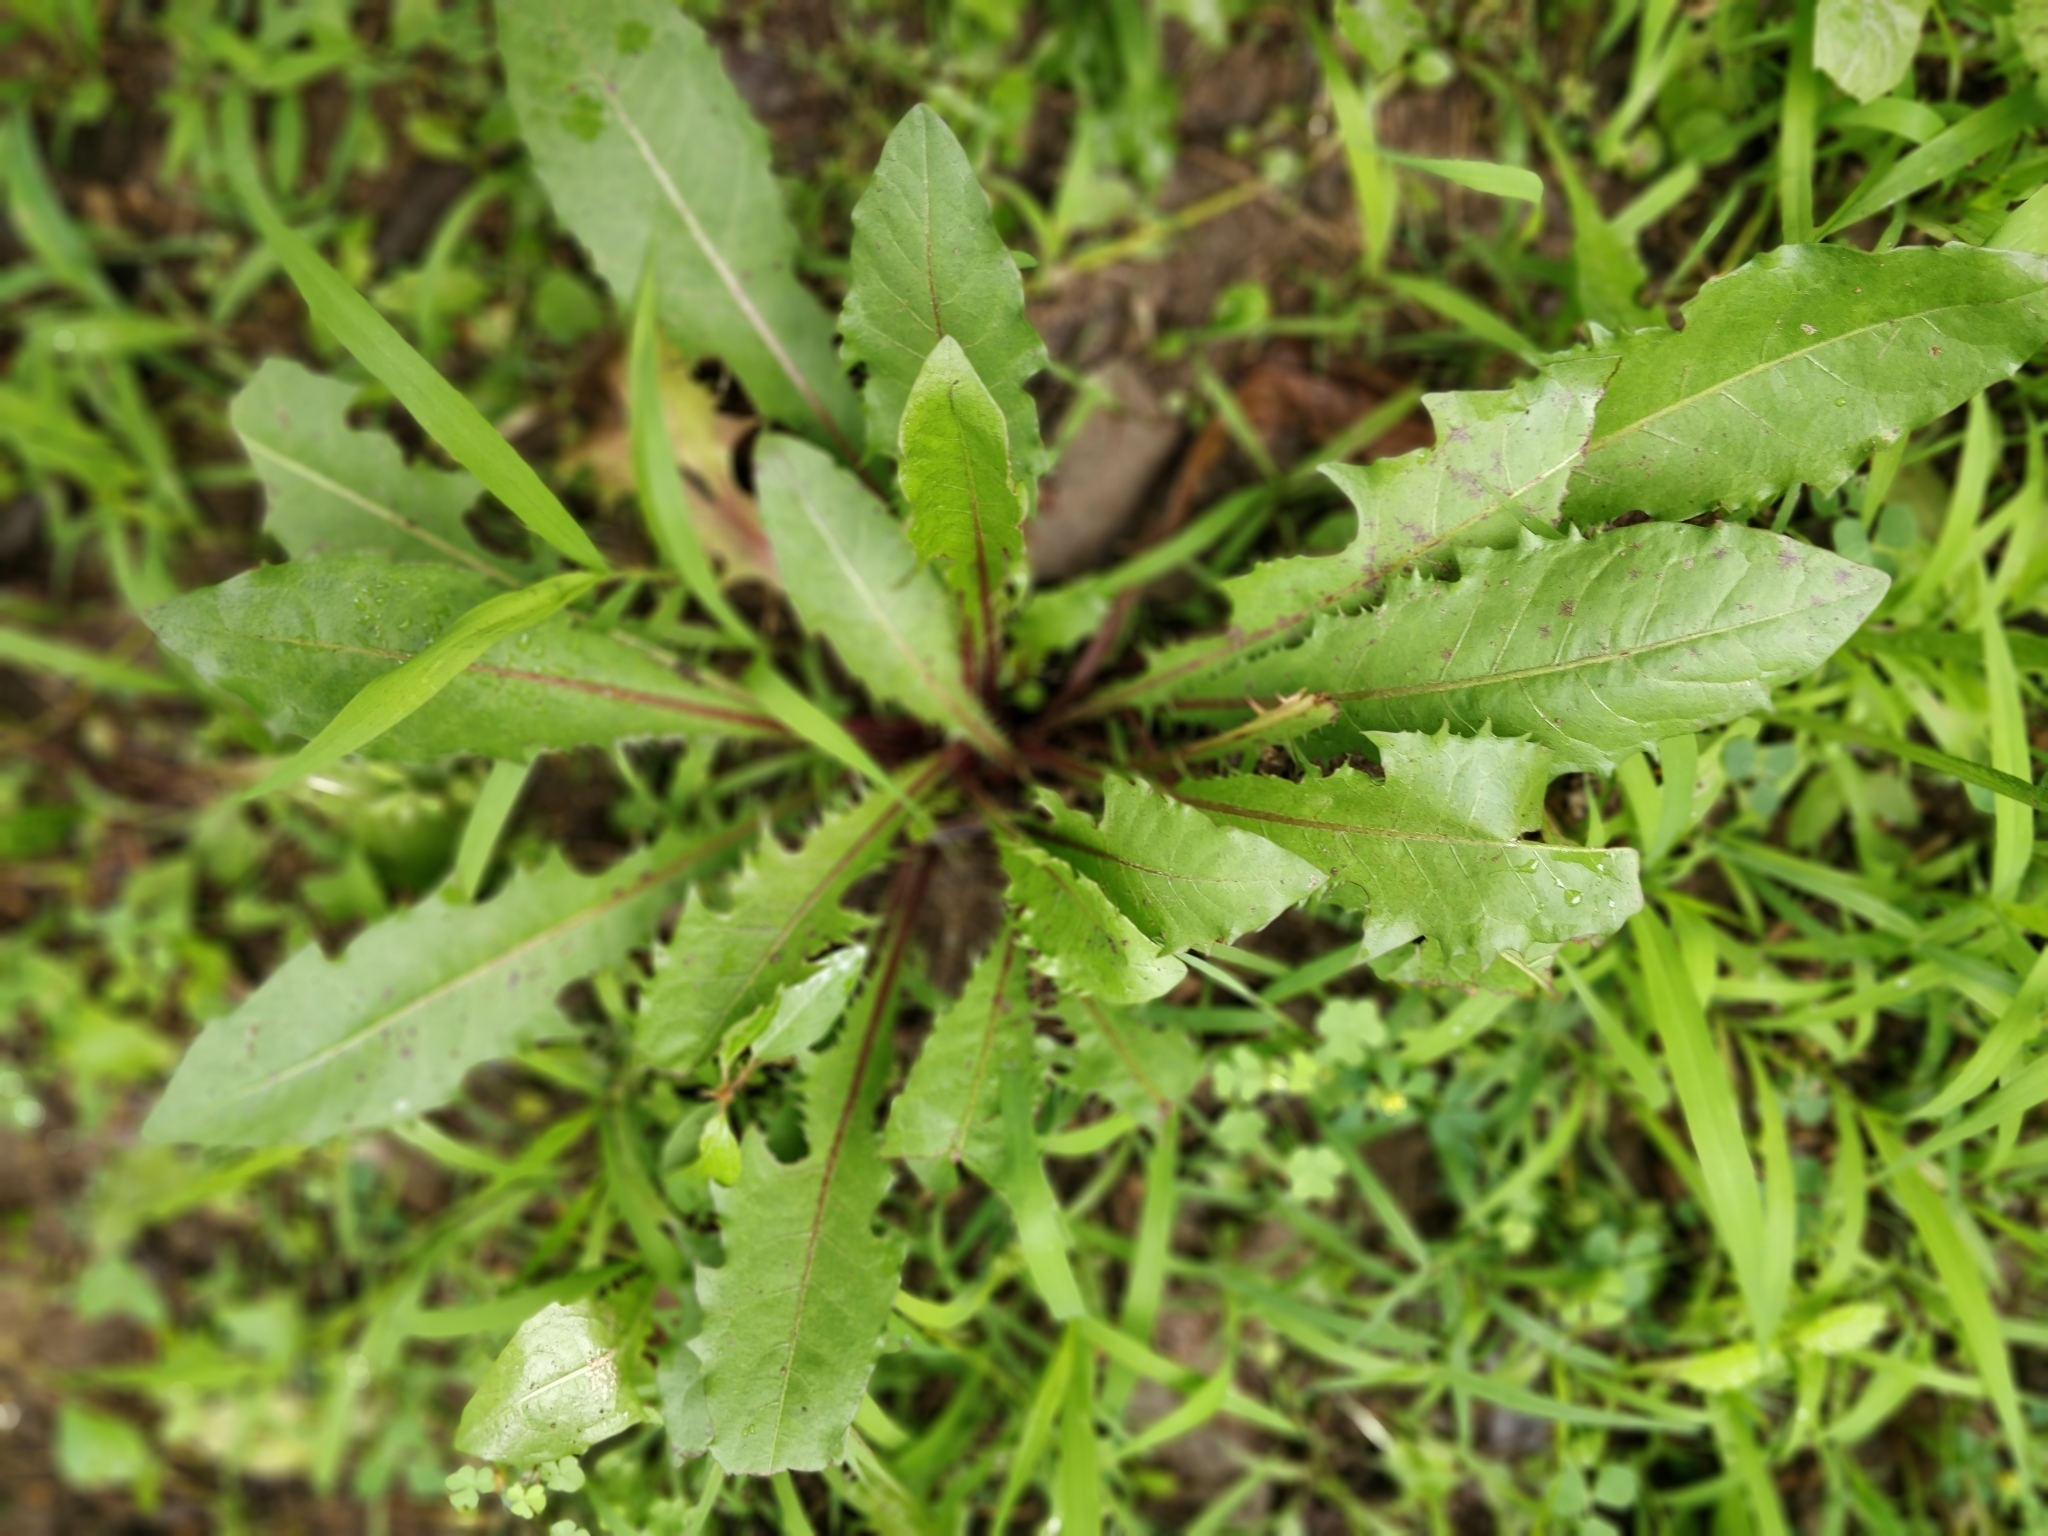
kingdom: Plantae
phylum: Tracheophyta
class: Magnoliopsida
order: Asterales
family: Asteraceae
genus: Taraxacum
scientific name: Taraxacum officinale
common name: Common dandelion
